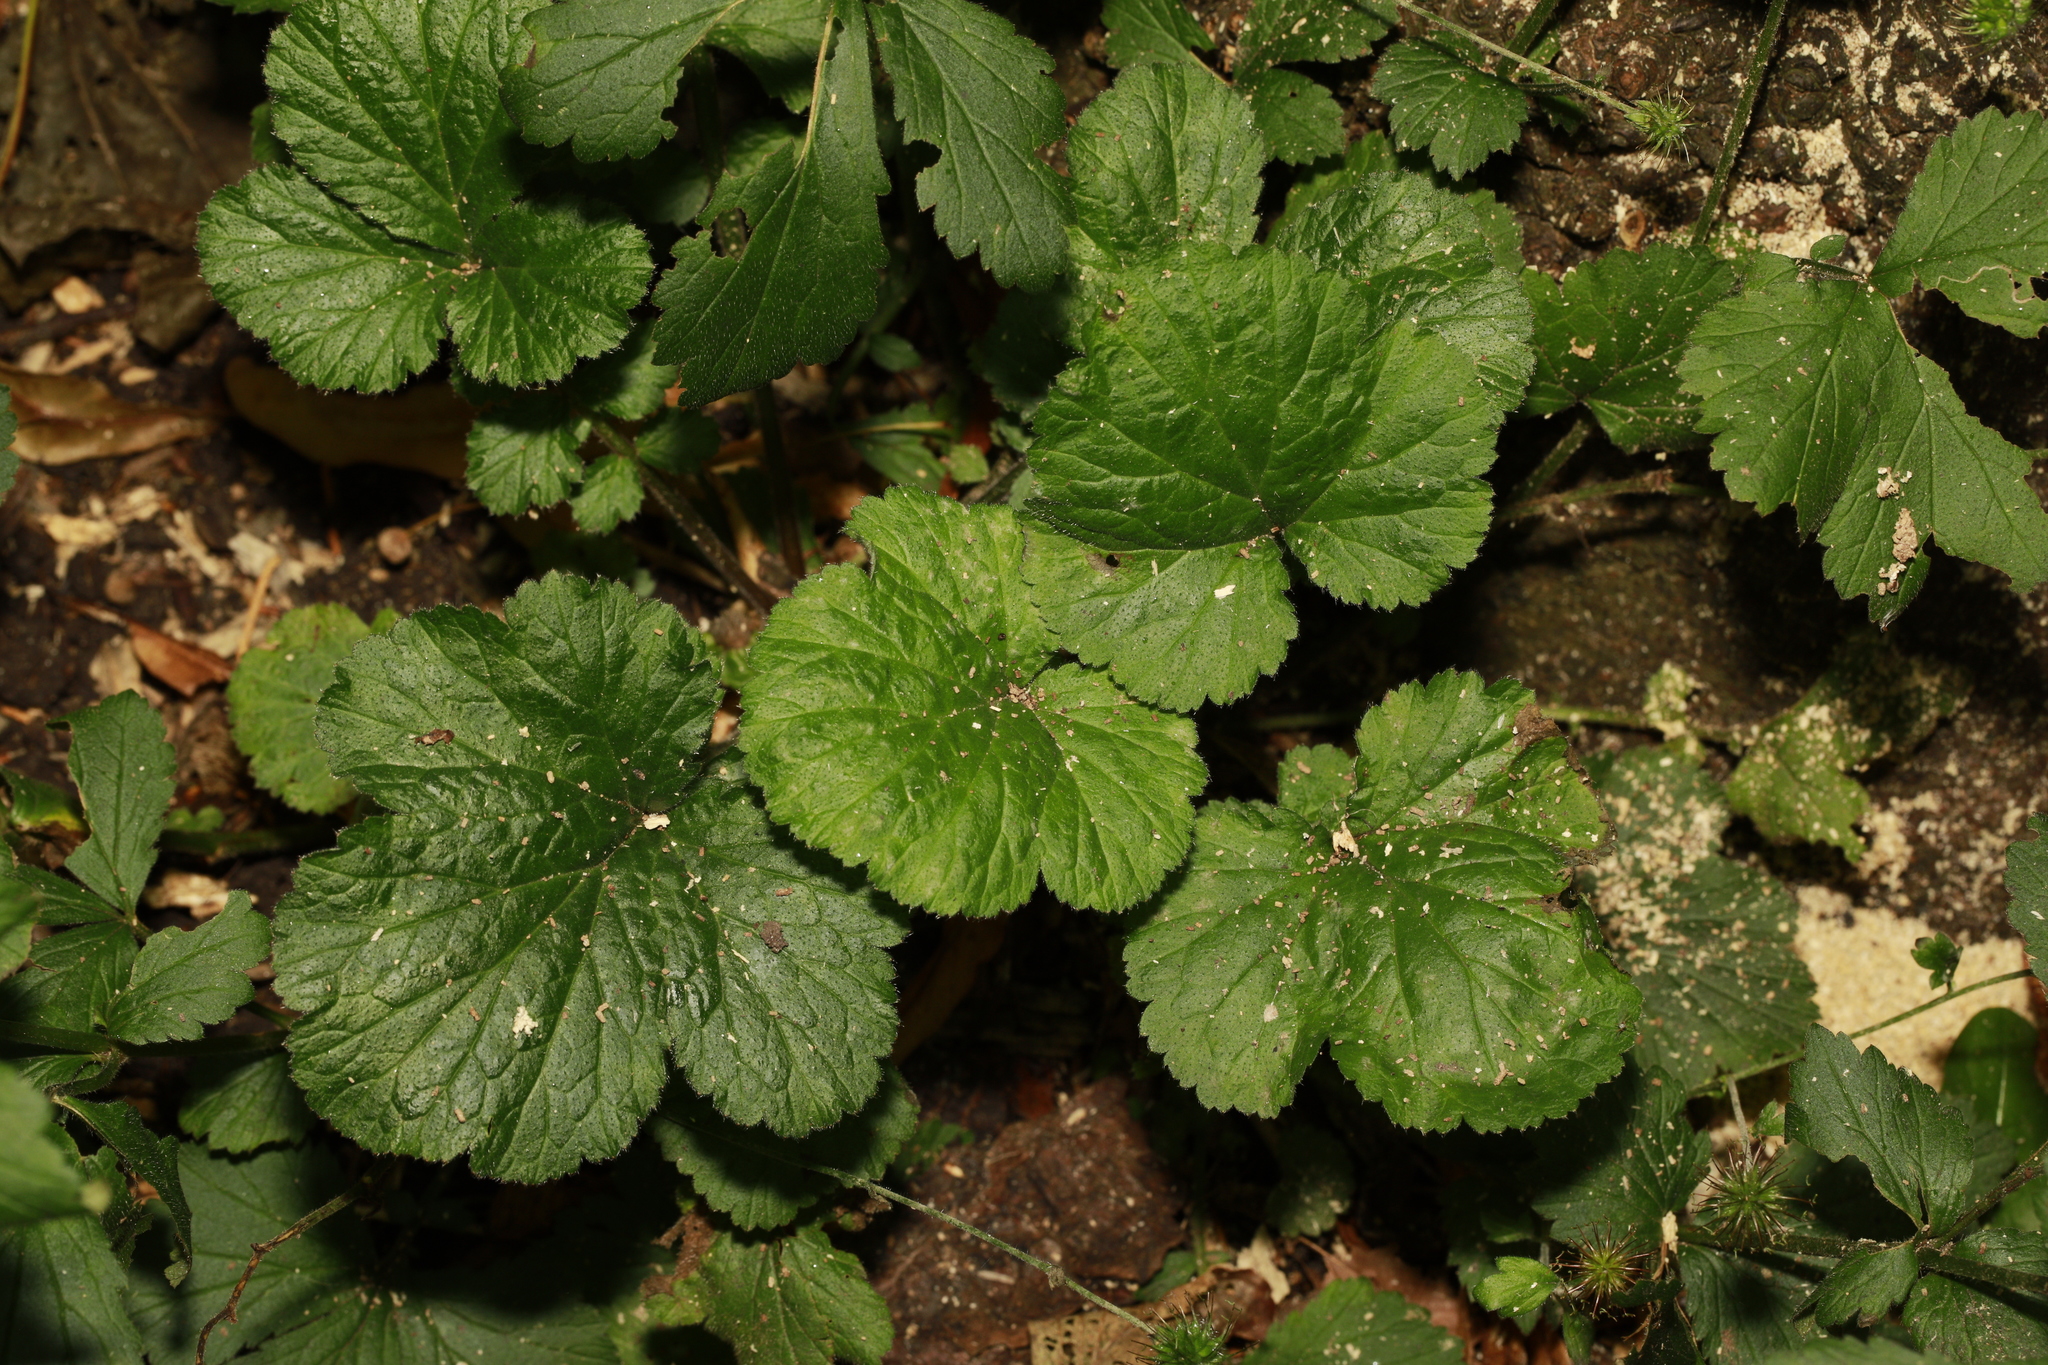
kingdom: Plantae
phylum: Tracheophyta
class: Magnoliopsida
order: Rosales
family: Rosaceae
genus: Geum
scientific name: Geum urbanum
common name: Wood avens
